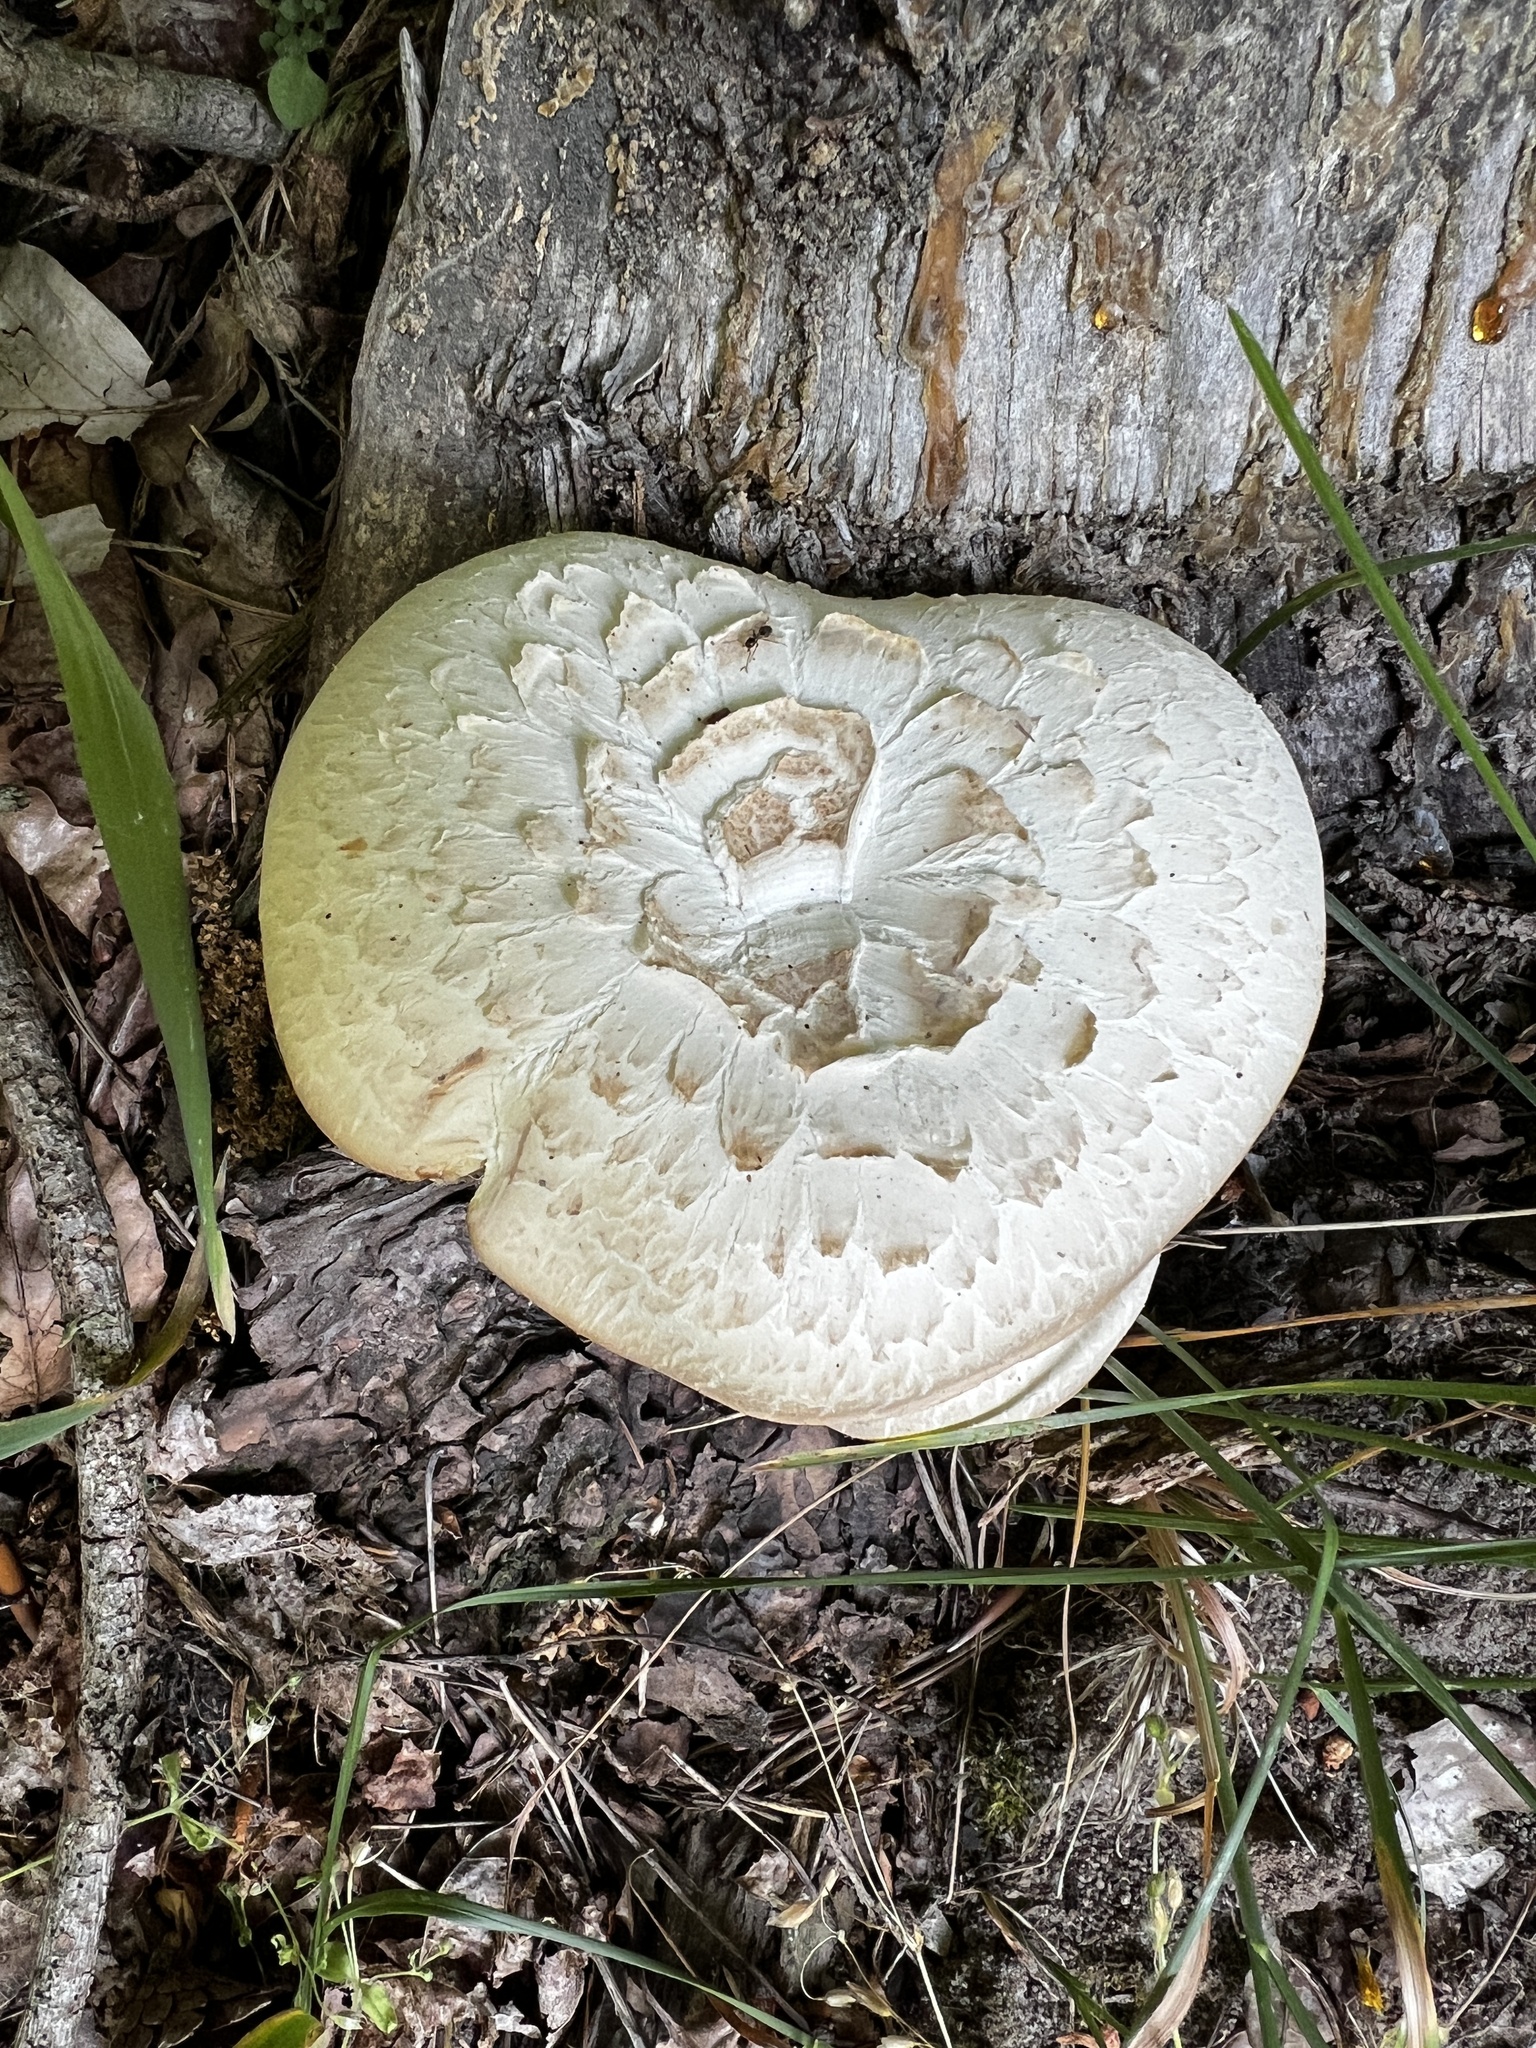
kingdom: Fungi
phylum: Basidiomycota
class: Agaricomycetes
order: Gloeophyllales
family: Gloeophyllaceae
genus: Neolentinus
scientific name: Neolentinus lepideus
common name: Scaly sawgill
